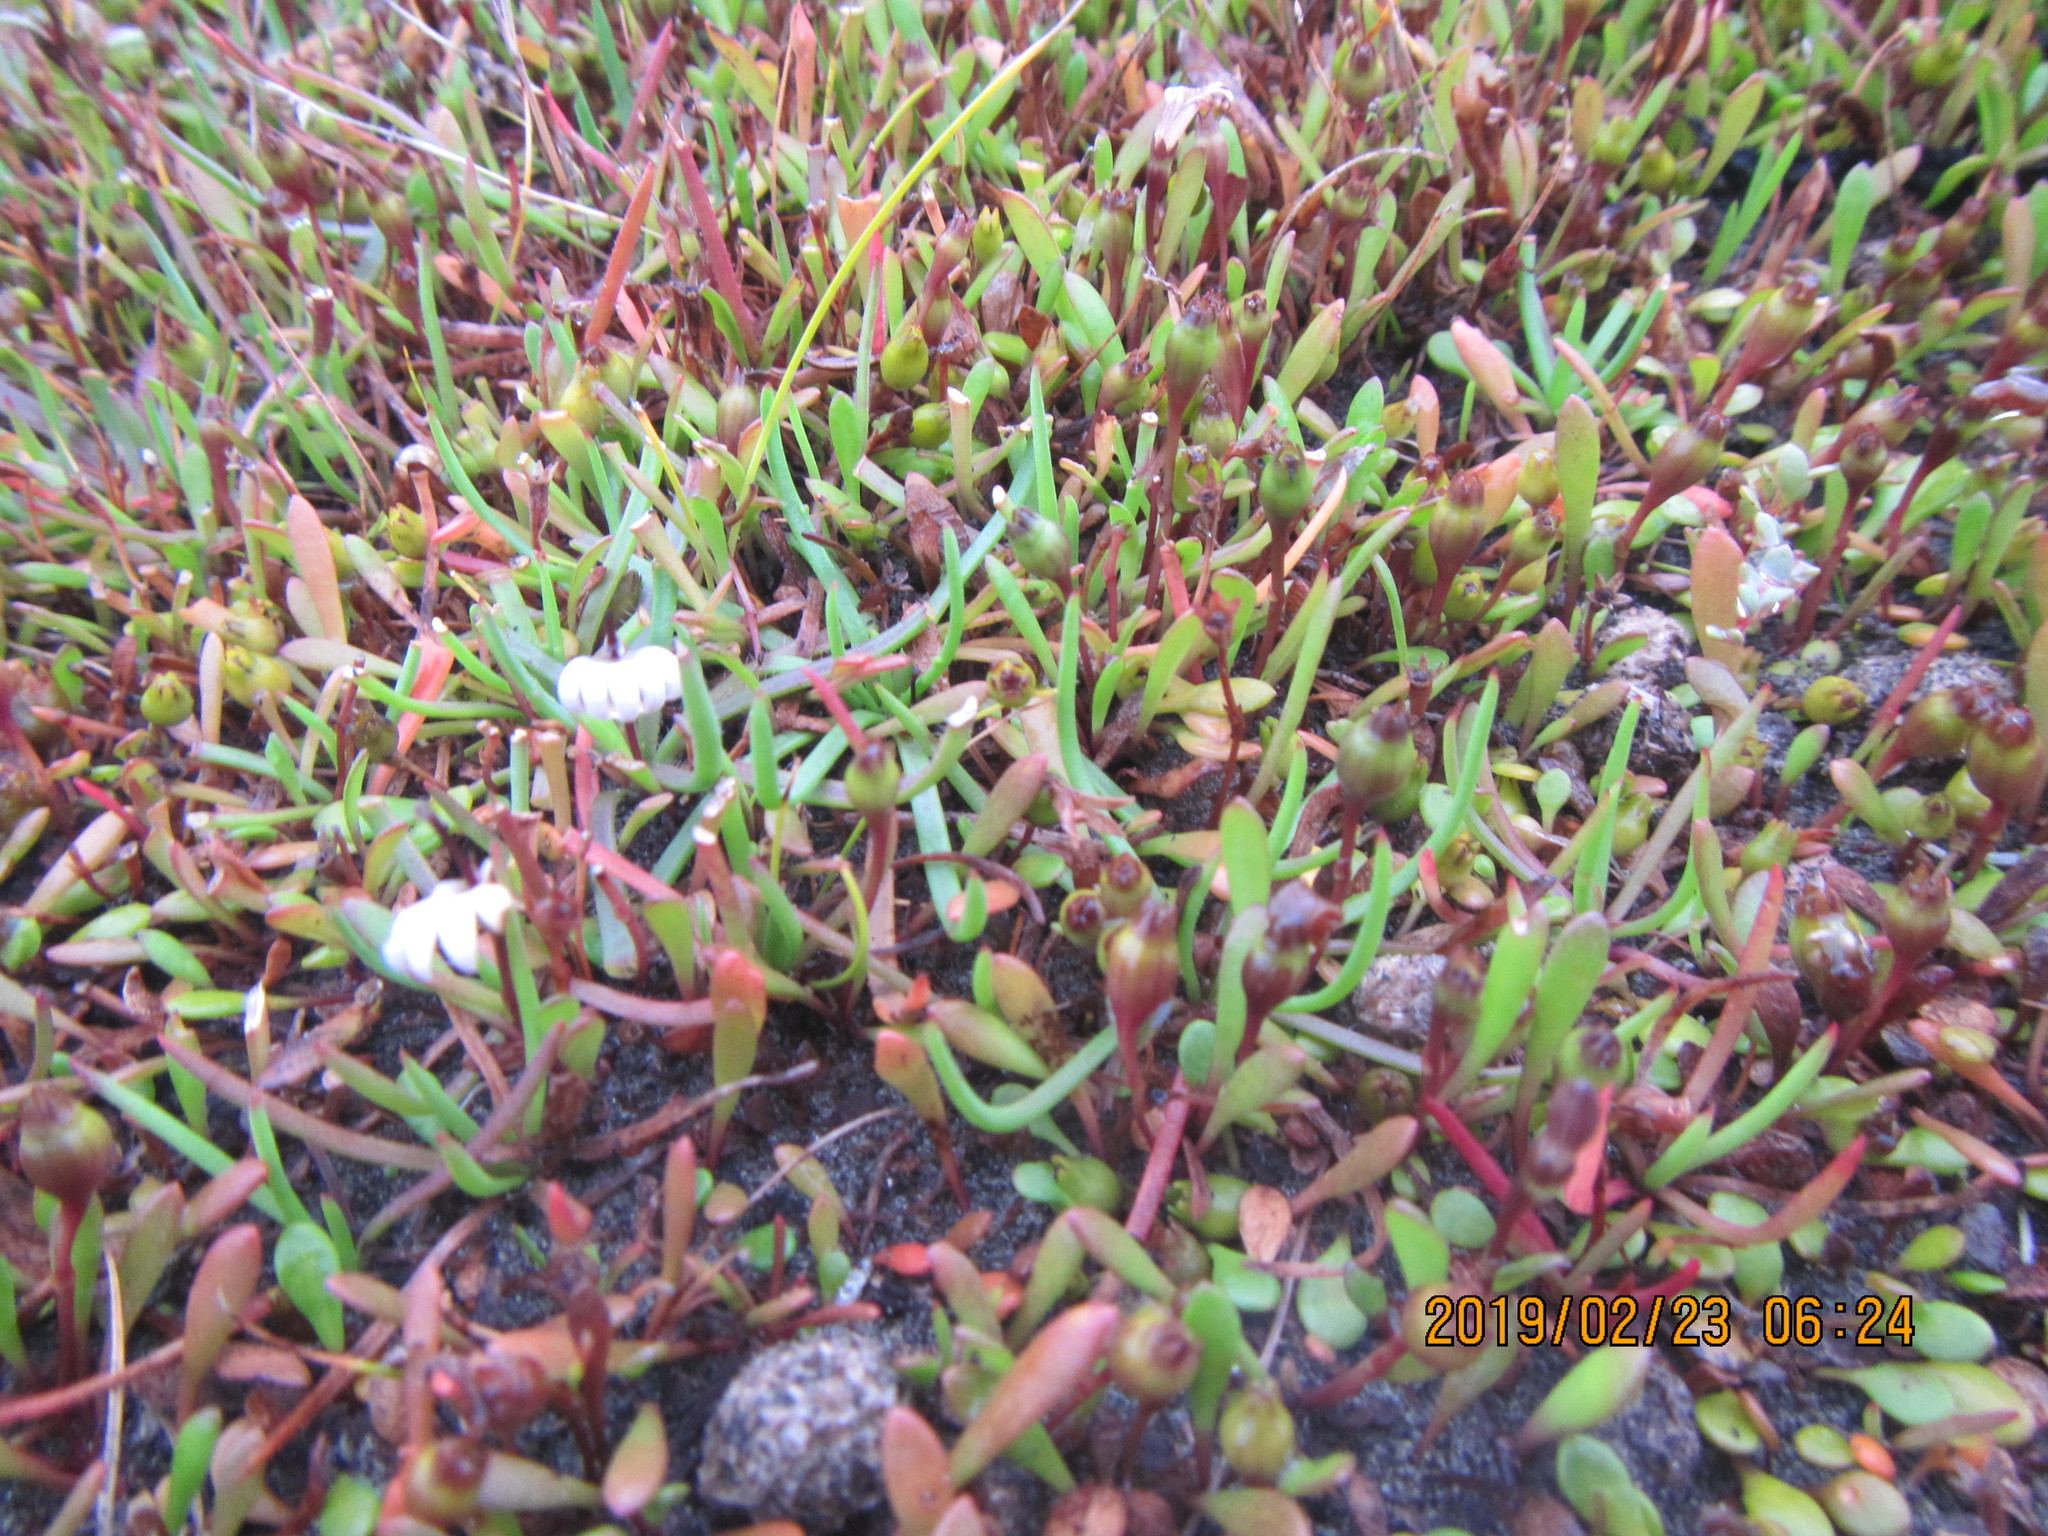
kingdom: Plantae
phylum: Tracheophyta
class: Magnoliopsida
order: Asterales
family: Goodeniaceae
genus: Goodenia
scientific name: Goodenia radicans
